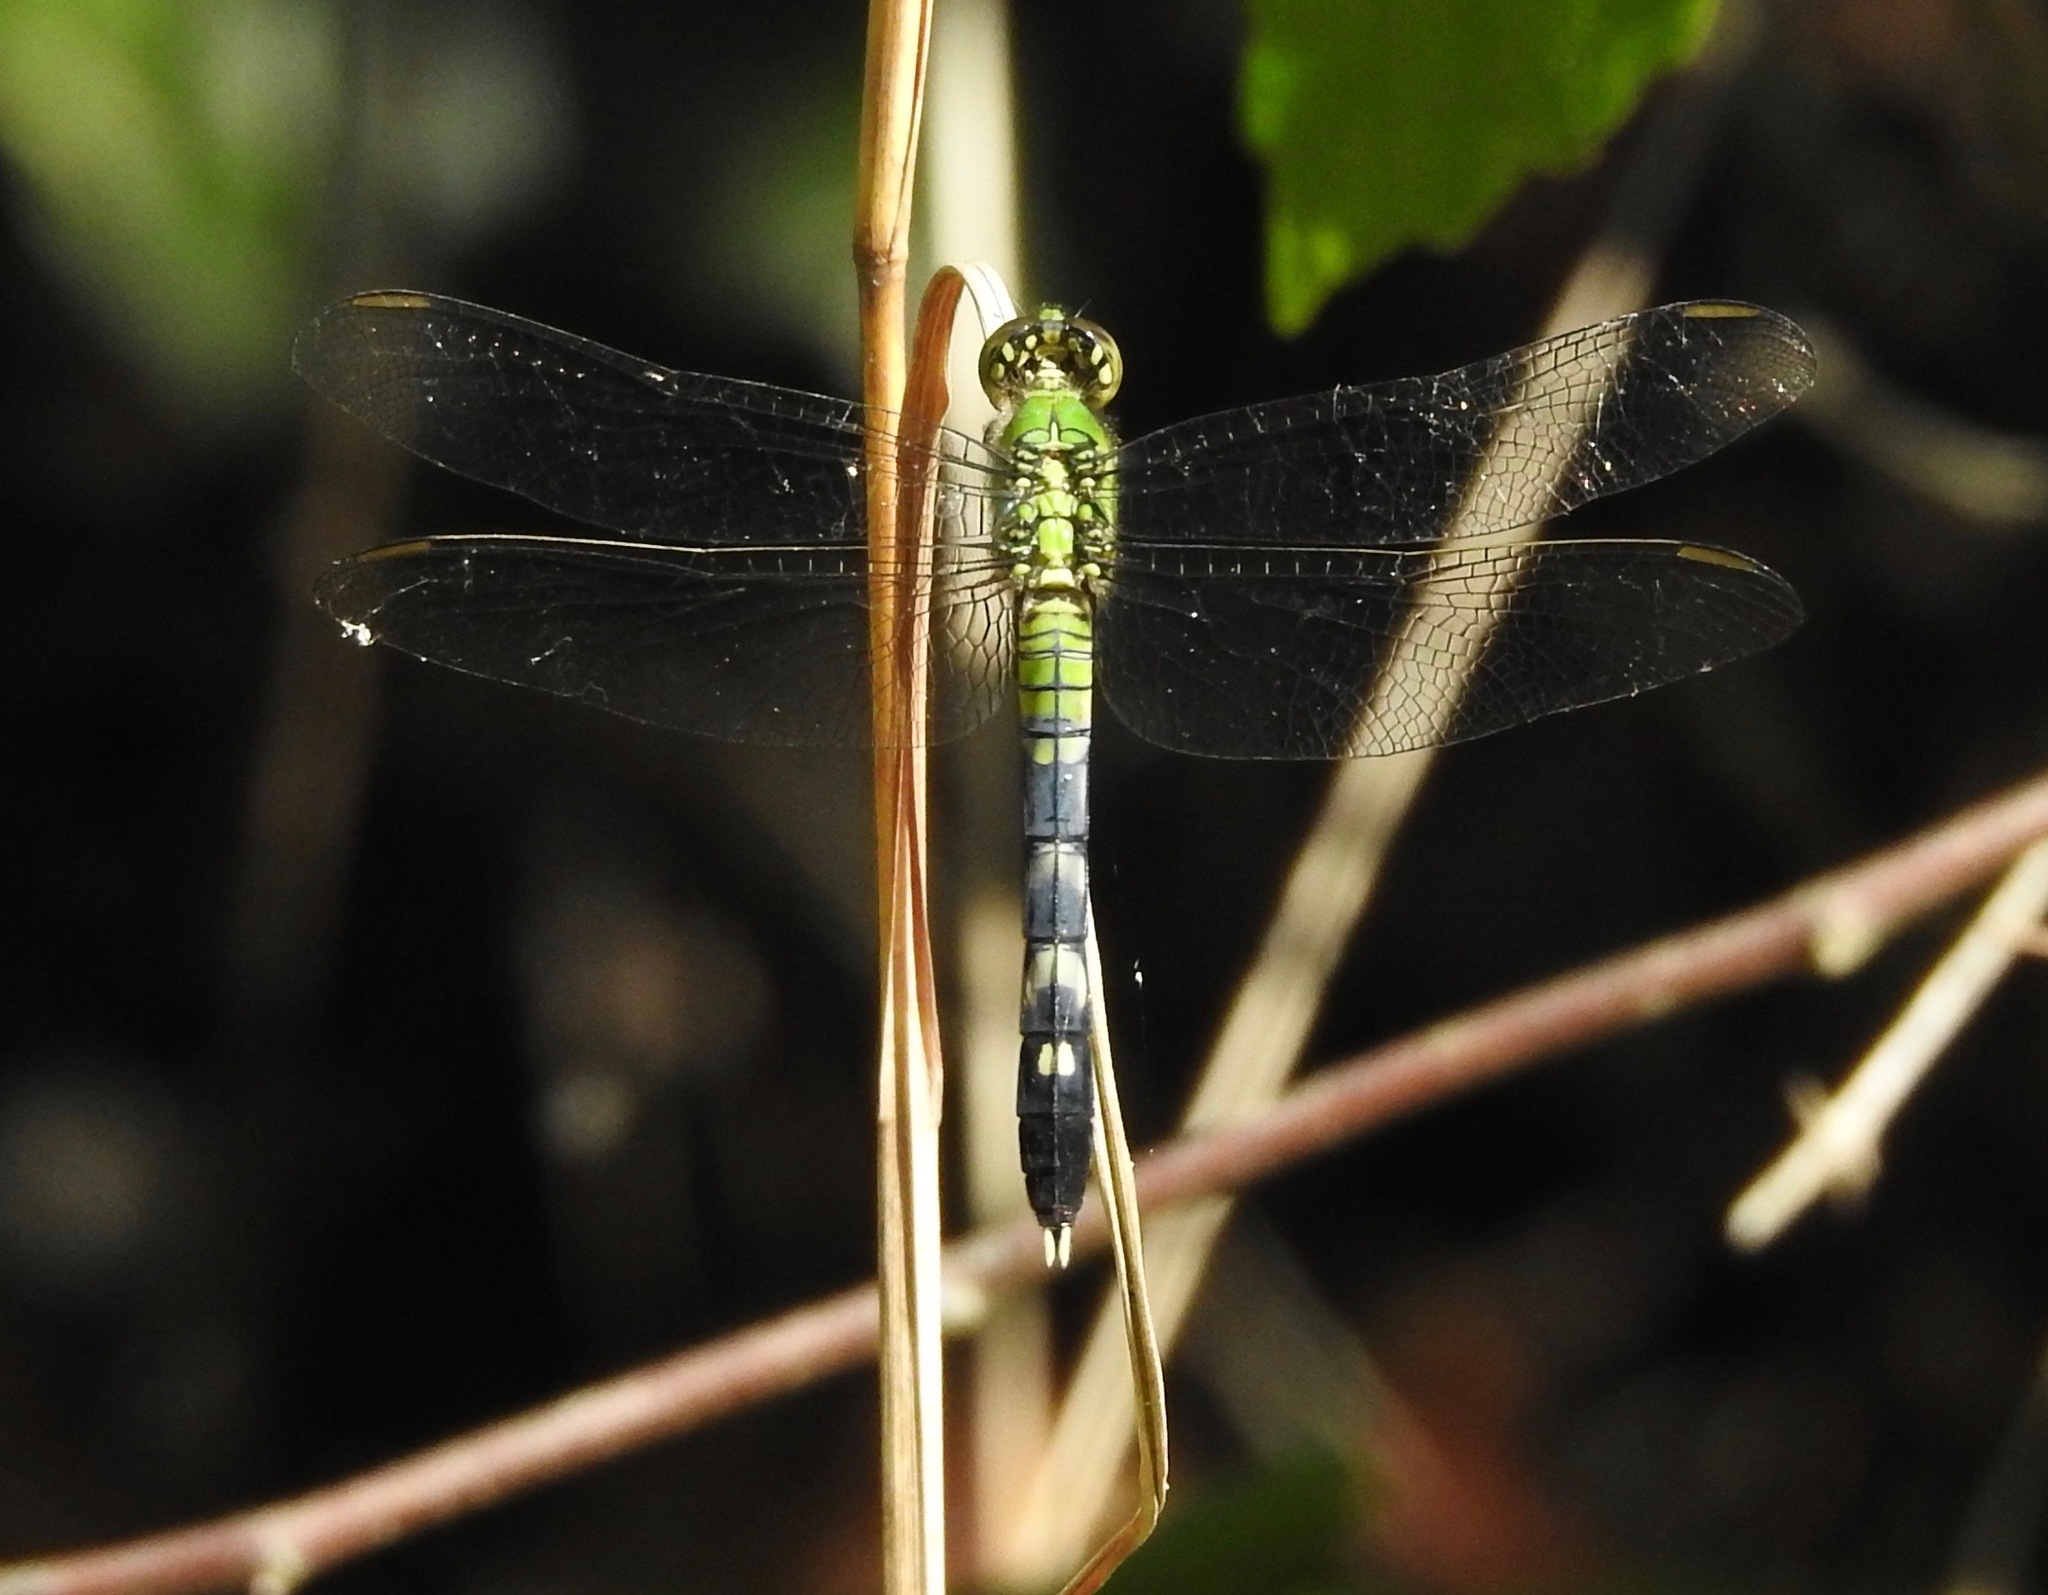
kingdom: Animalia
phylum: Arthropoda
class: Insecta
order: Odonata
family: Libellulidae
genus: Erythemis
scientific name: Erythemis simplicicollis
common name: Eastern pondhawk
